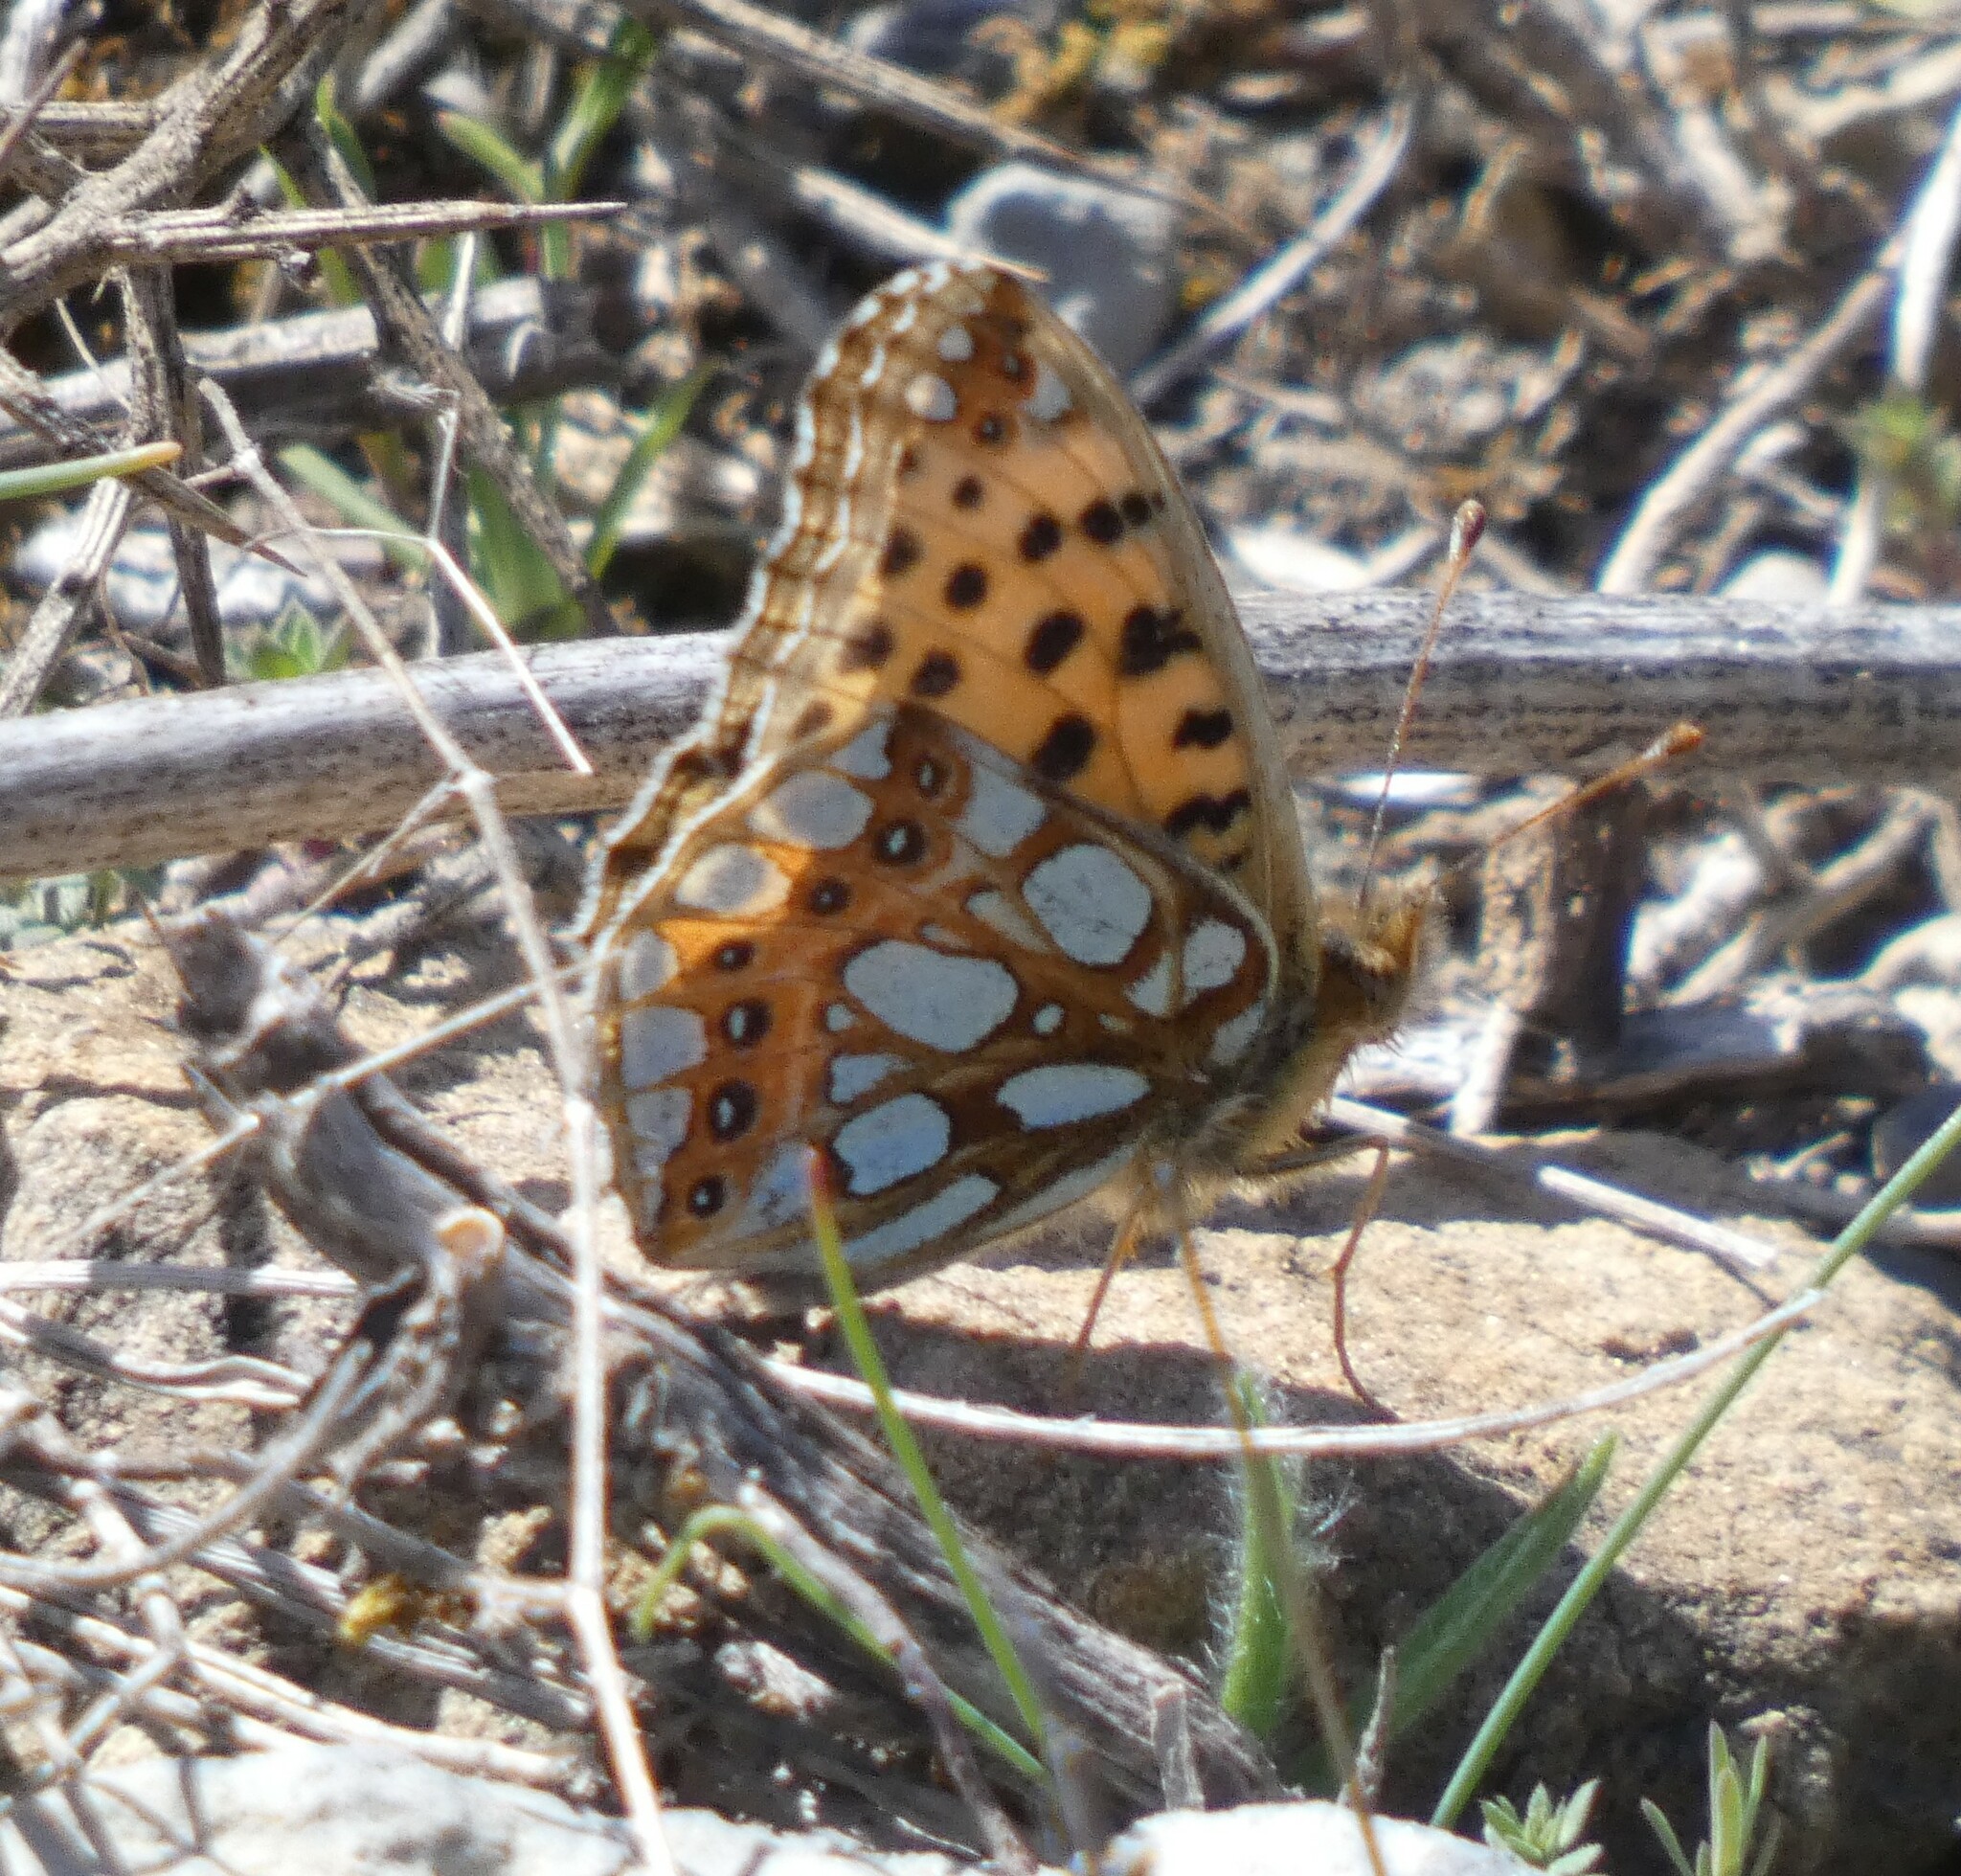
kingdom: Animalia
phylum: Arthropoda
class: Insecta
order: Lepidoptera
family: Nymphalidae
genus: Issoria
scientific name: Issoria lathonia
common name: Queen of spain fritillary
